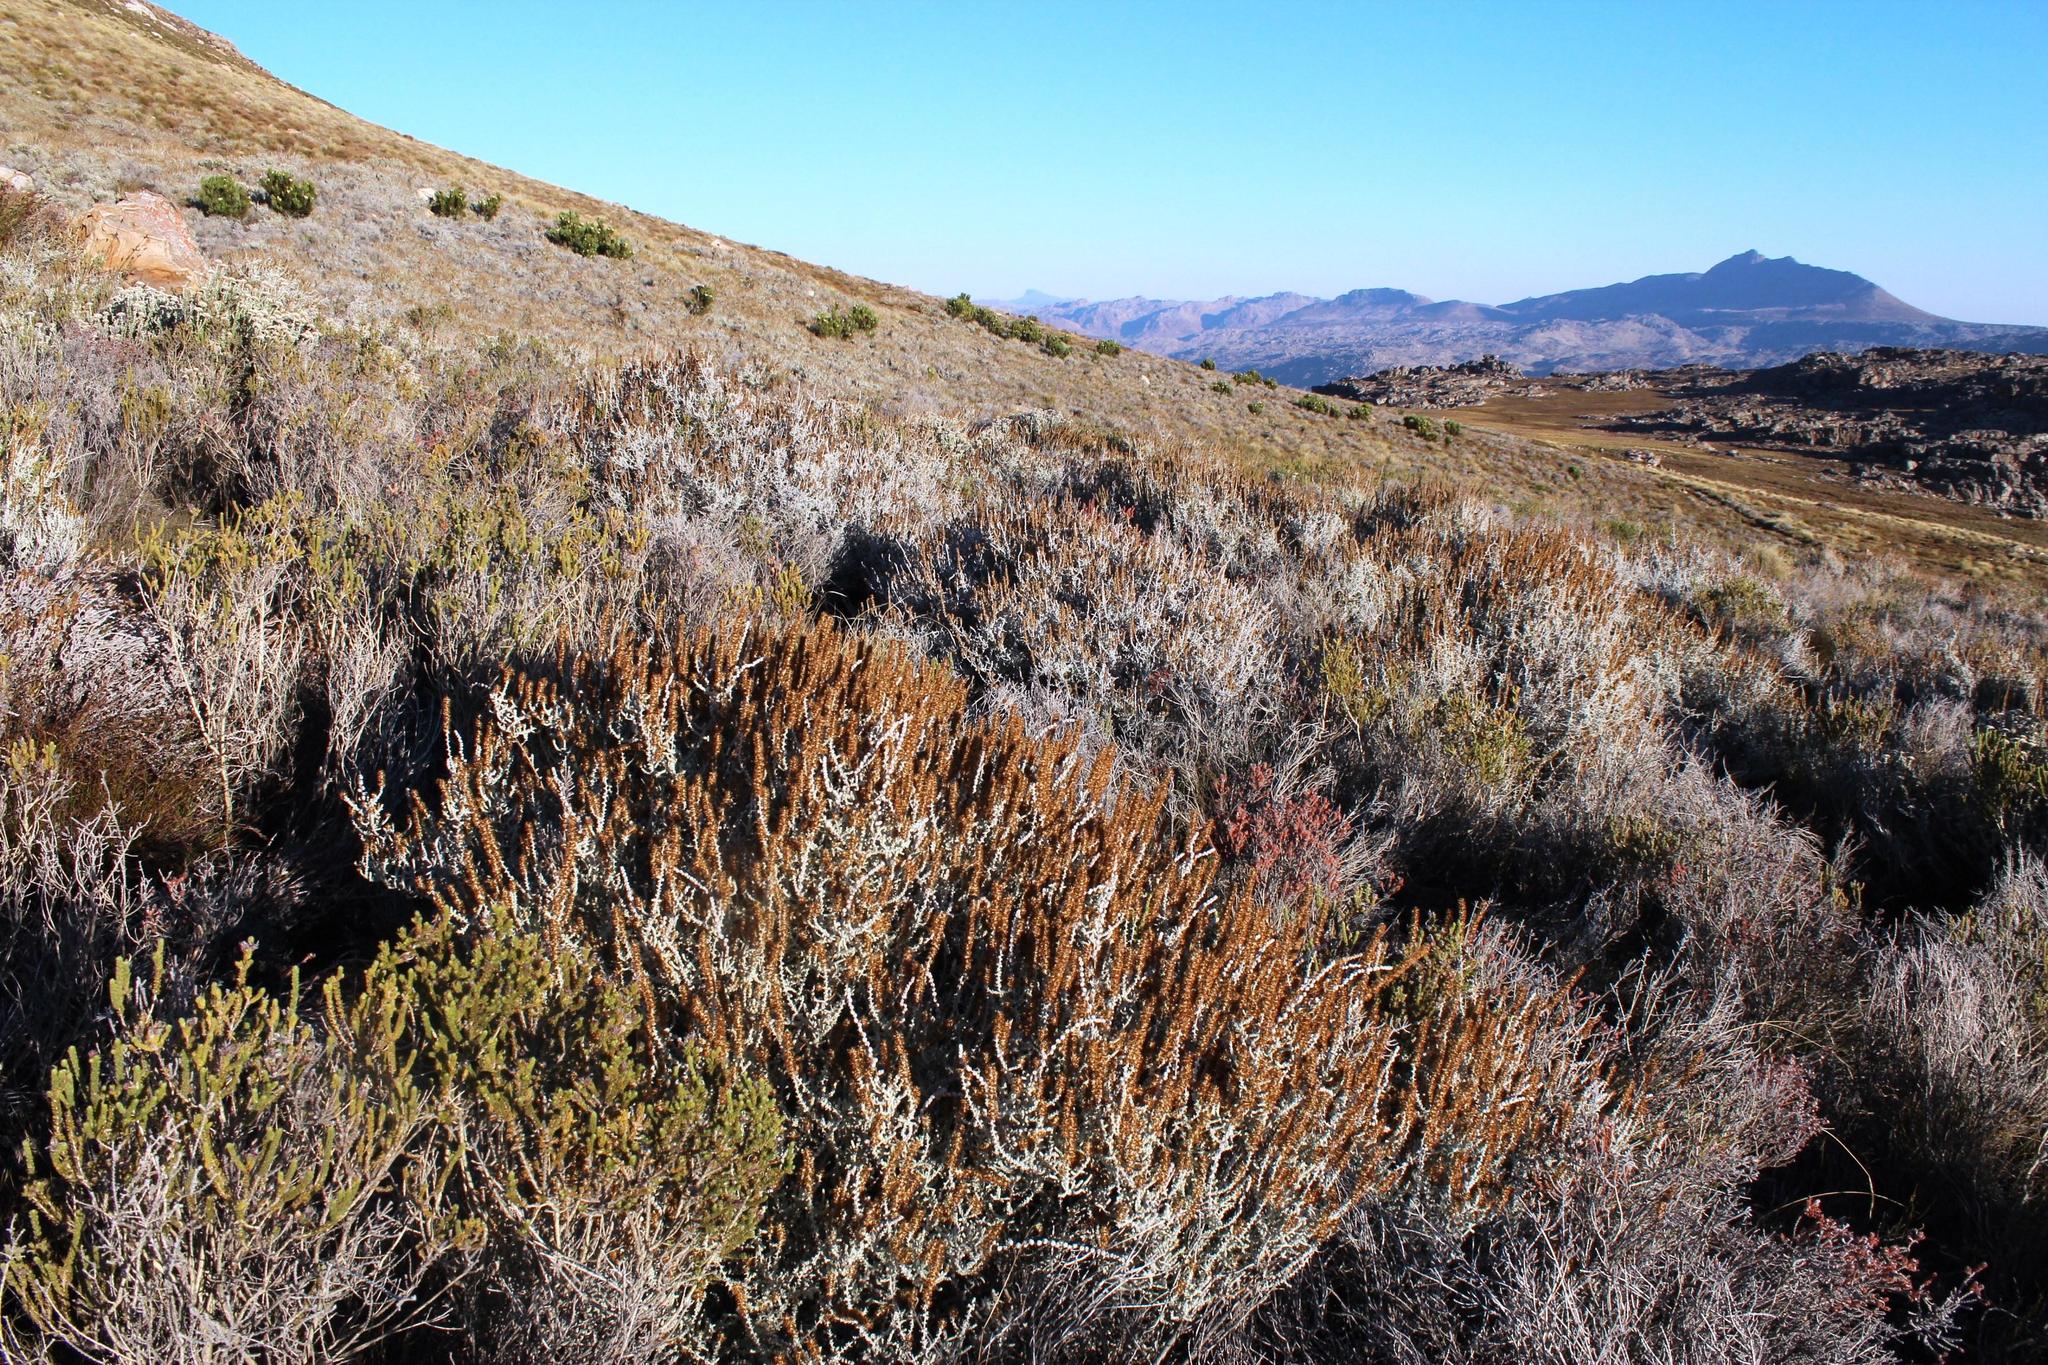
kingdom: Plantae
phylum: Tracheophyta
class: Magnoliopsida
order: Asterales
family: Asteraceae
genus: Seriphium
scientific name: Seriphium plumosum
